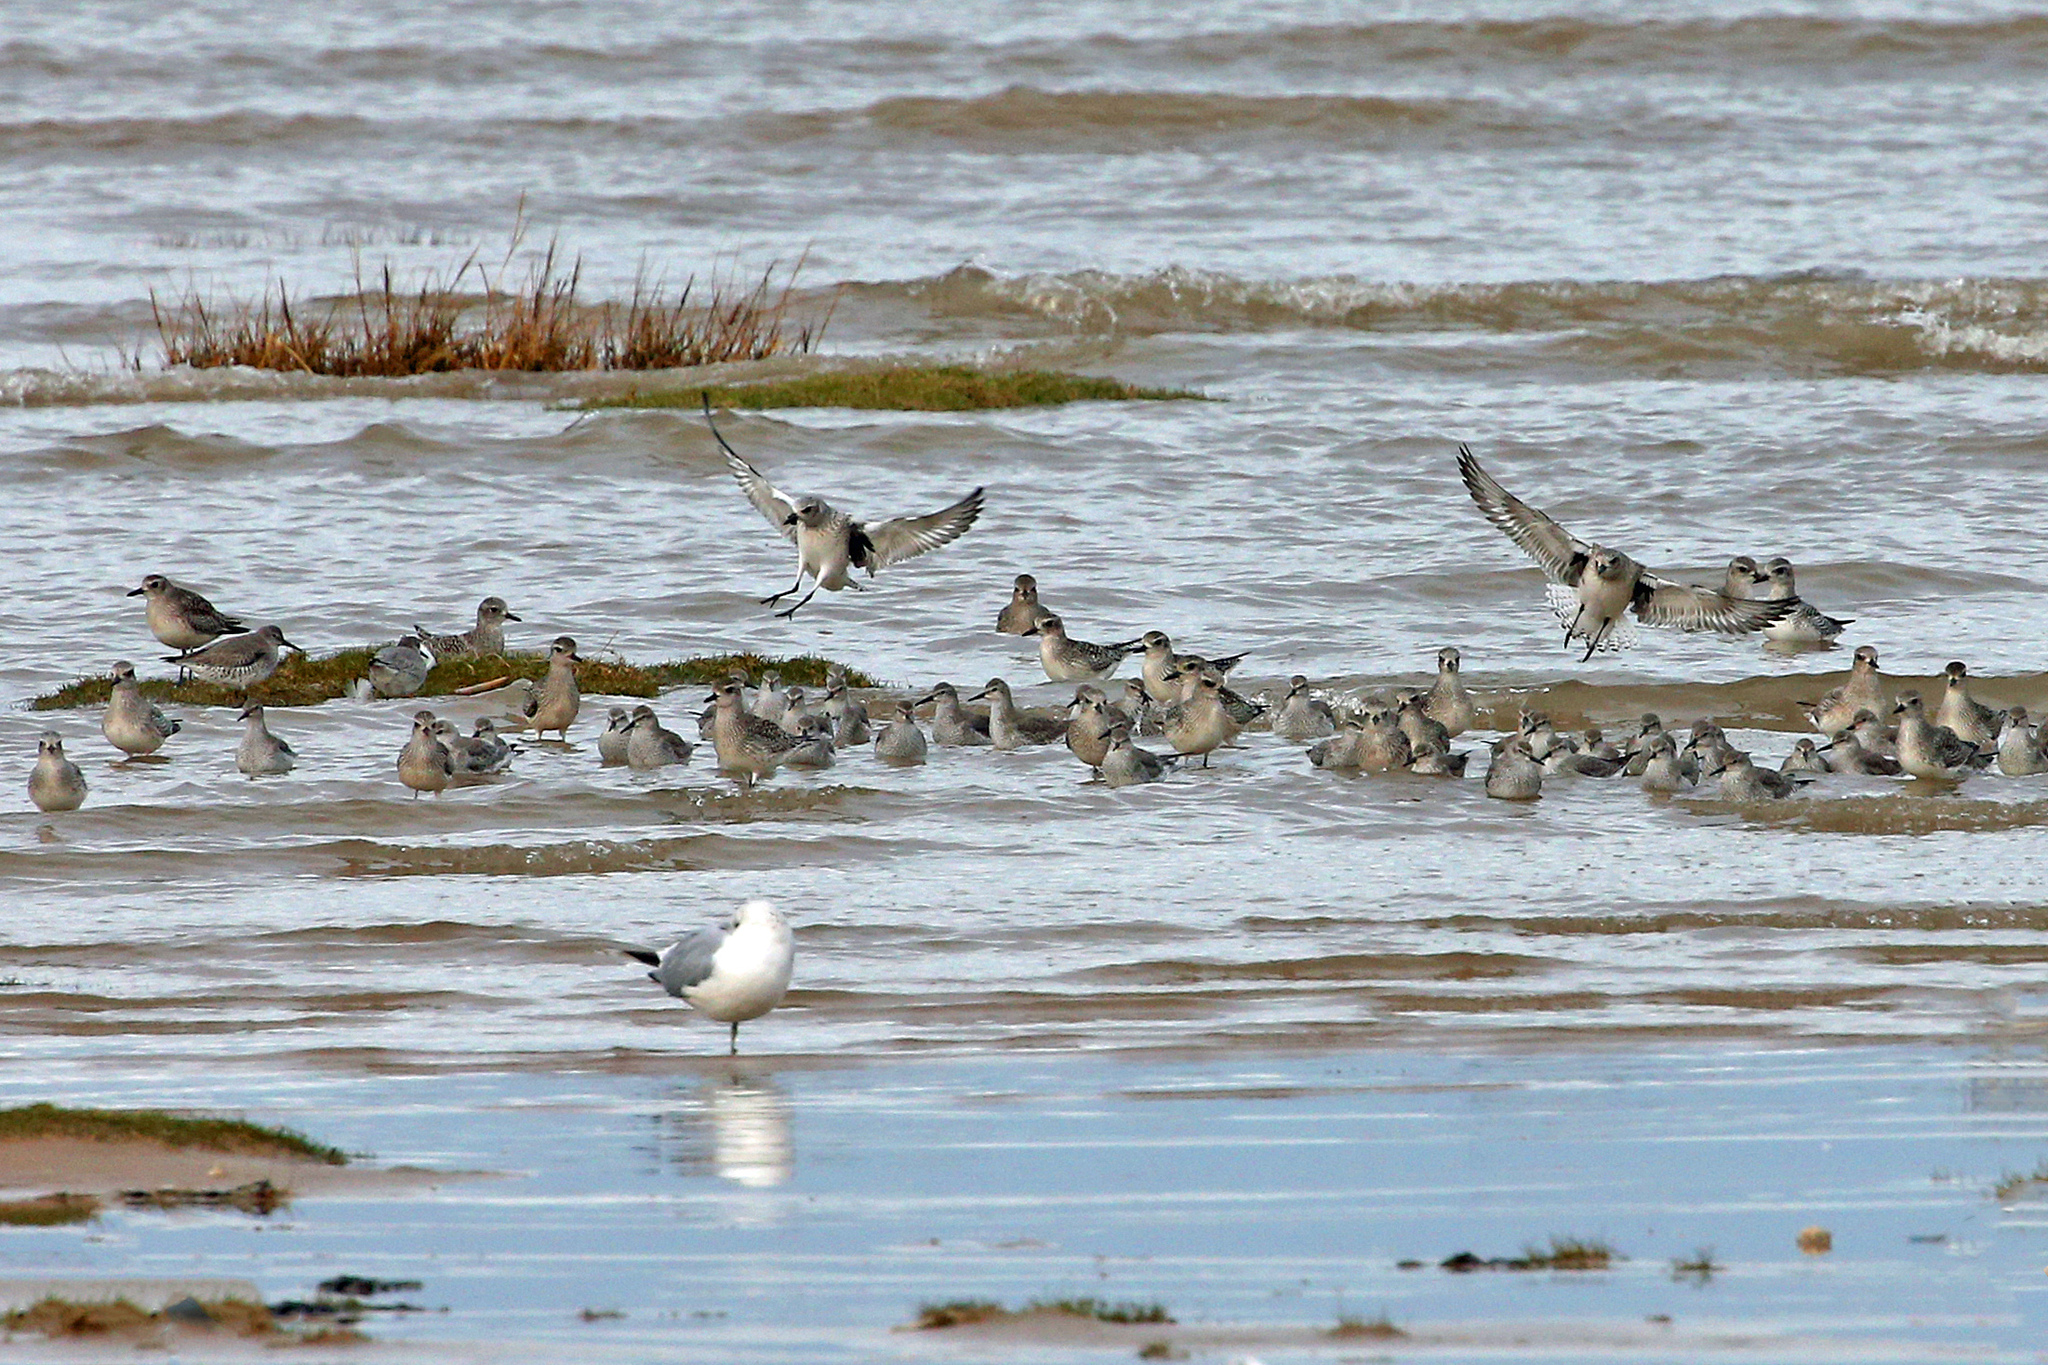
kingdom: Animalia
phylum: Chordata
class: Aves
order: Charadriiformes
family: Charadriidae
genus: Pluvialis
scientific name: Pluvialis squatarola
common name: Grey plover
